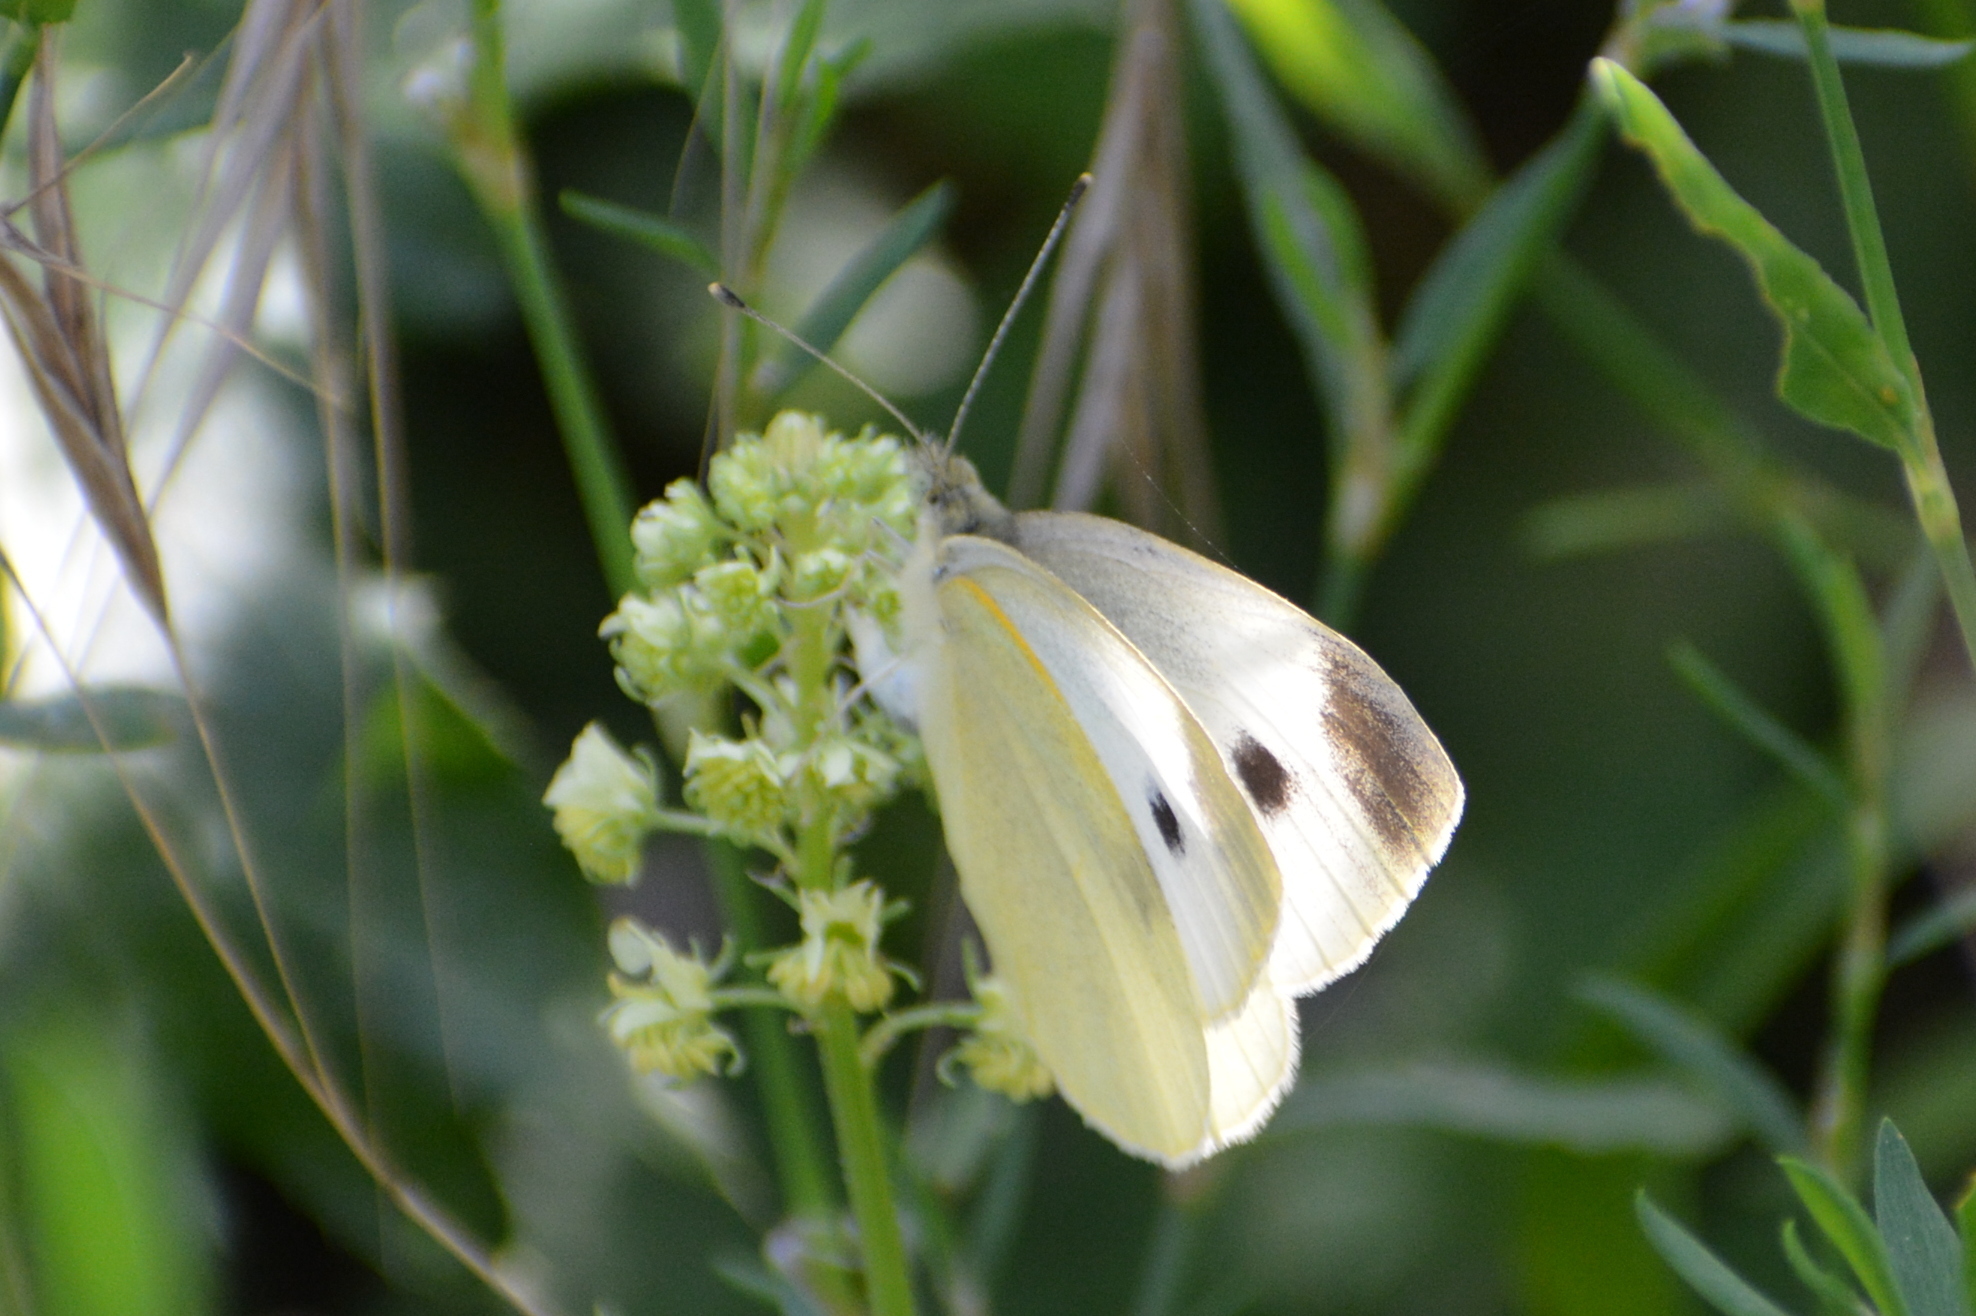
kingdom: Animalia
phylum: Arthropoda
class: Insecta
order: Lepidoptera
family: Pieridae
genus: Pieris
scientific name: Pieris rapae
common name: Small white
